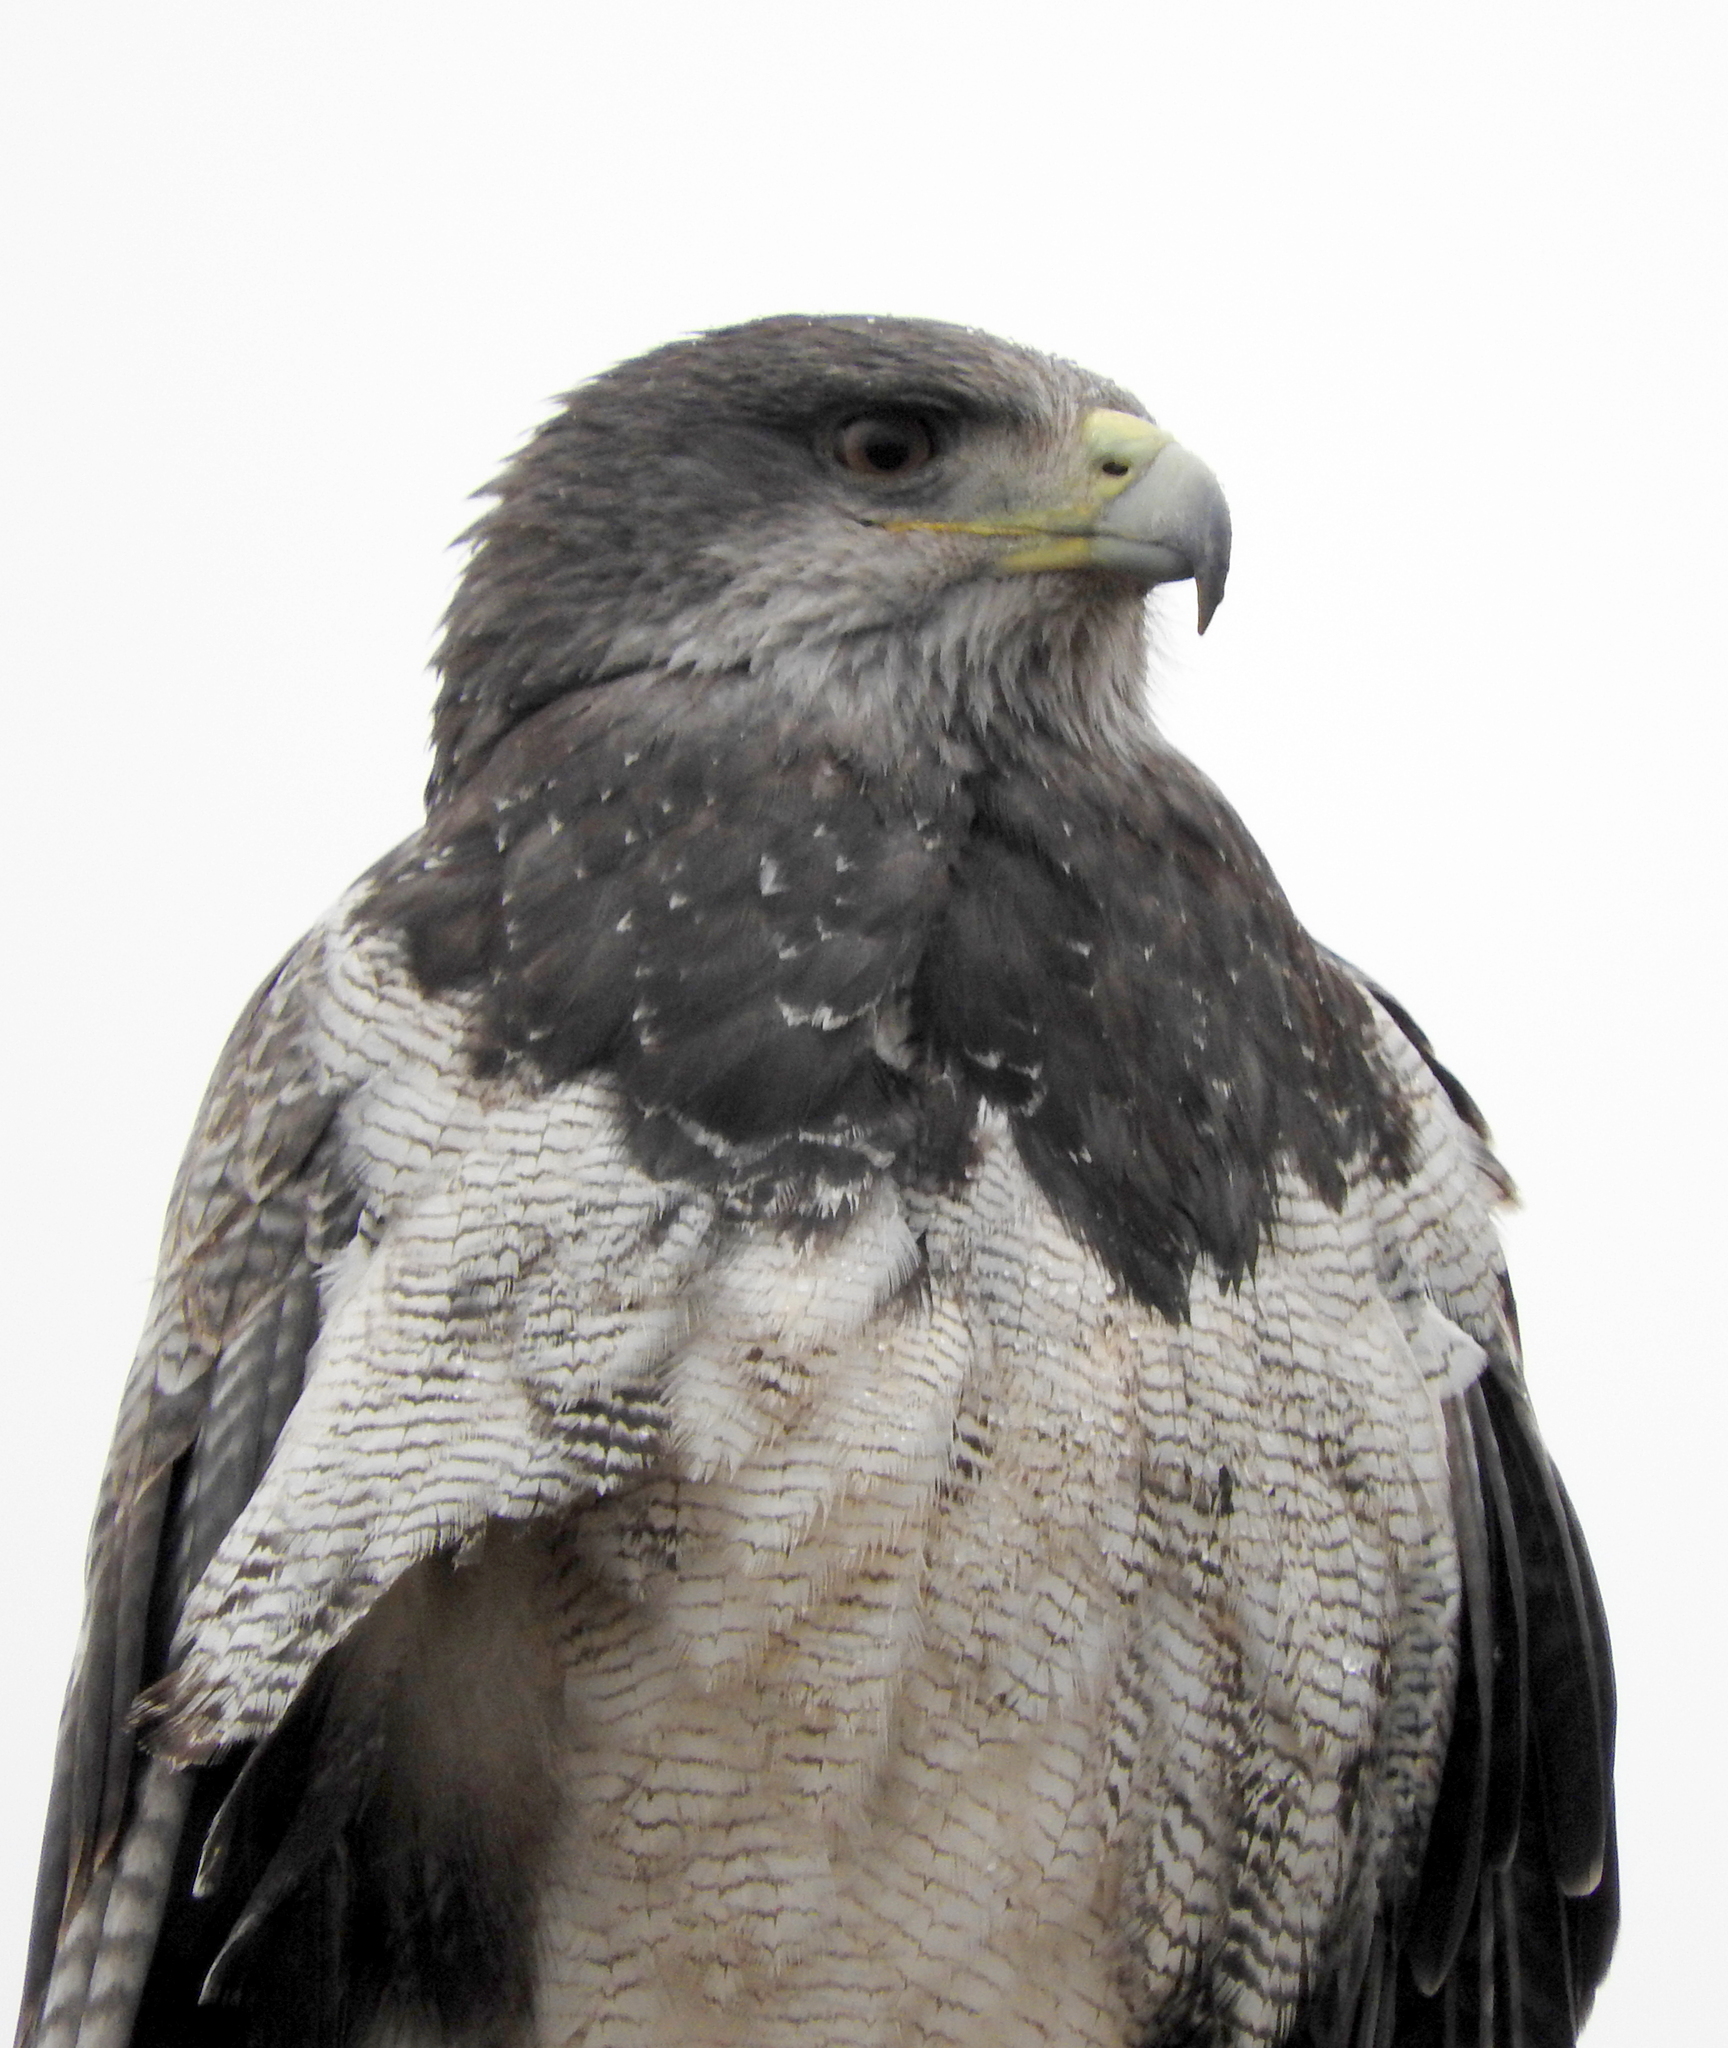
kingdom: Animalia
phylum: Chordata
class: Aves
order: Accipitriformes
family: Accipitridae
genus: Geranoaetus
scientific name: Geranoaetus melanoleucus
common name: Black-chested buzzard-eagle
